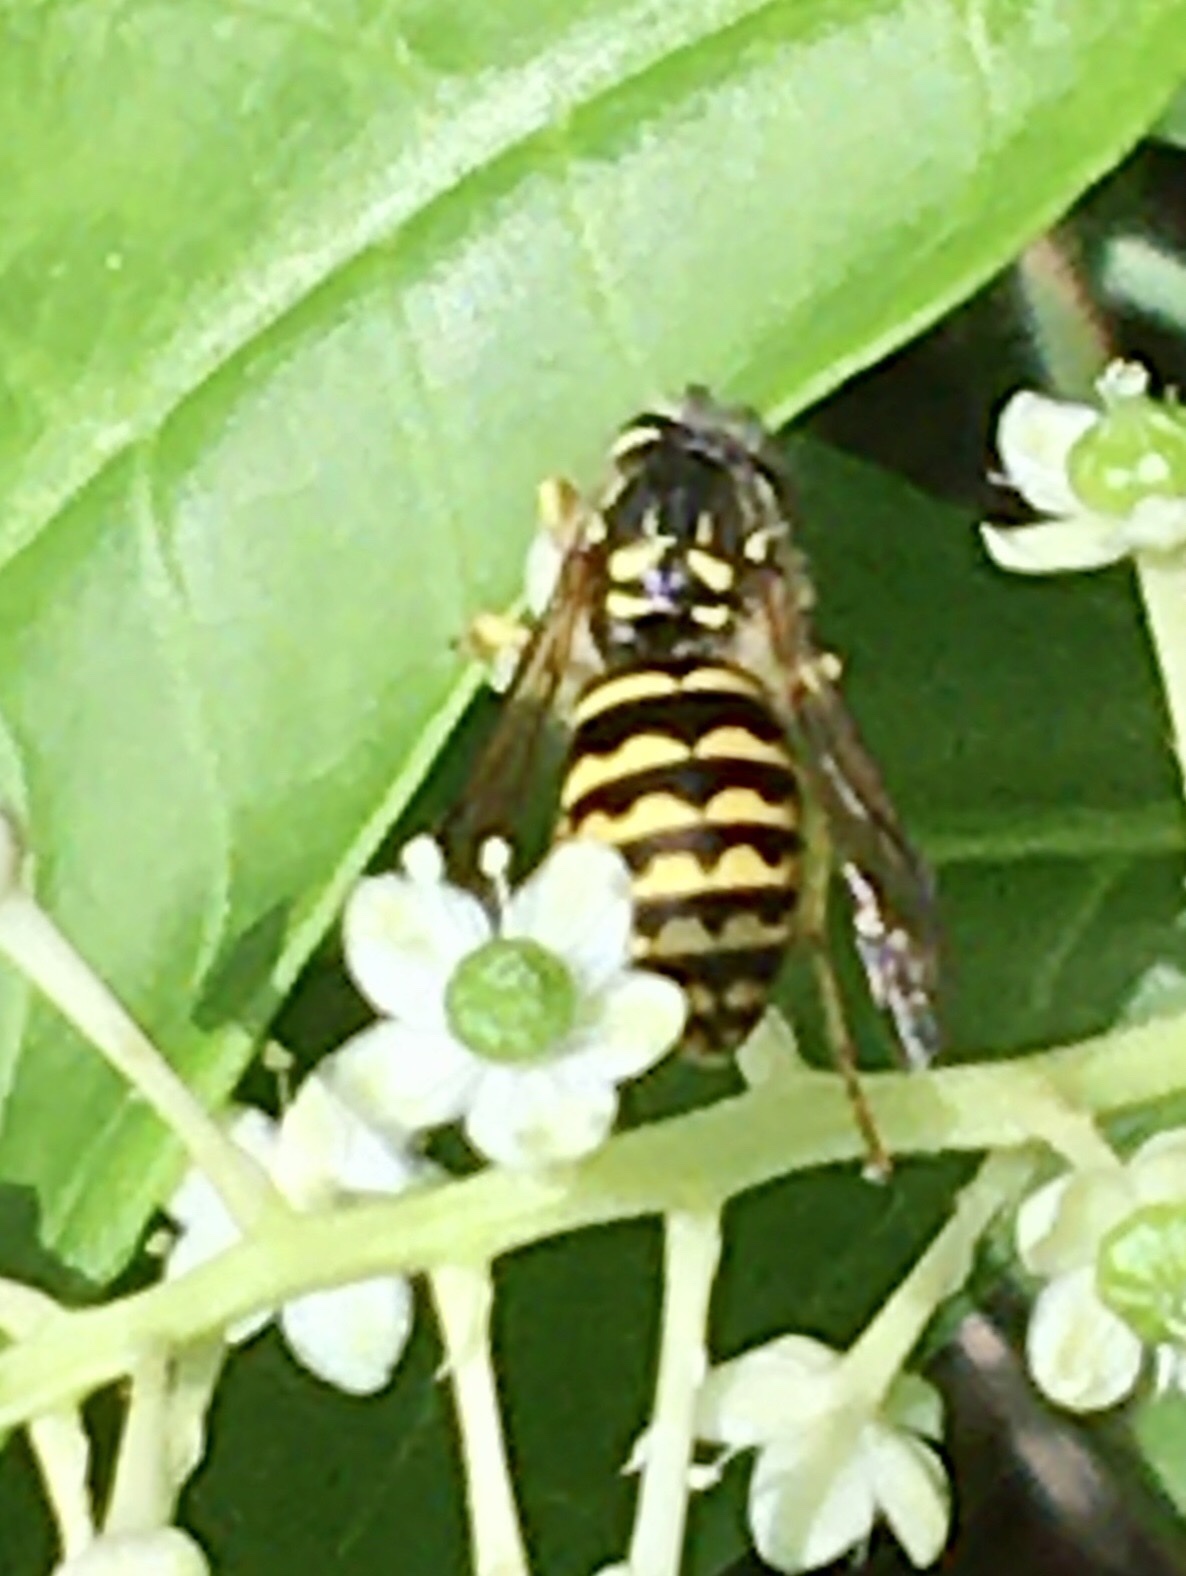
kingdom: Animalia
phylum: Arthropoda
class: Insecta
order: Hymenoptera
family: Vespidae
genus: Dolichovespula
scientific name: Dolichovespula arenaria
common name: Aerial yellowjacket
